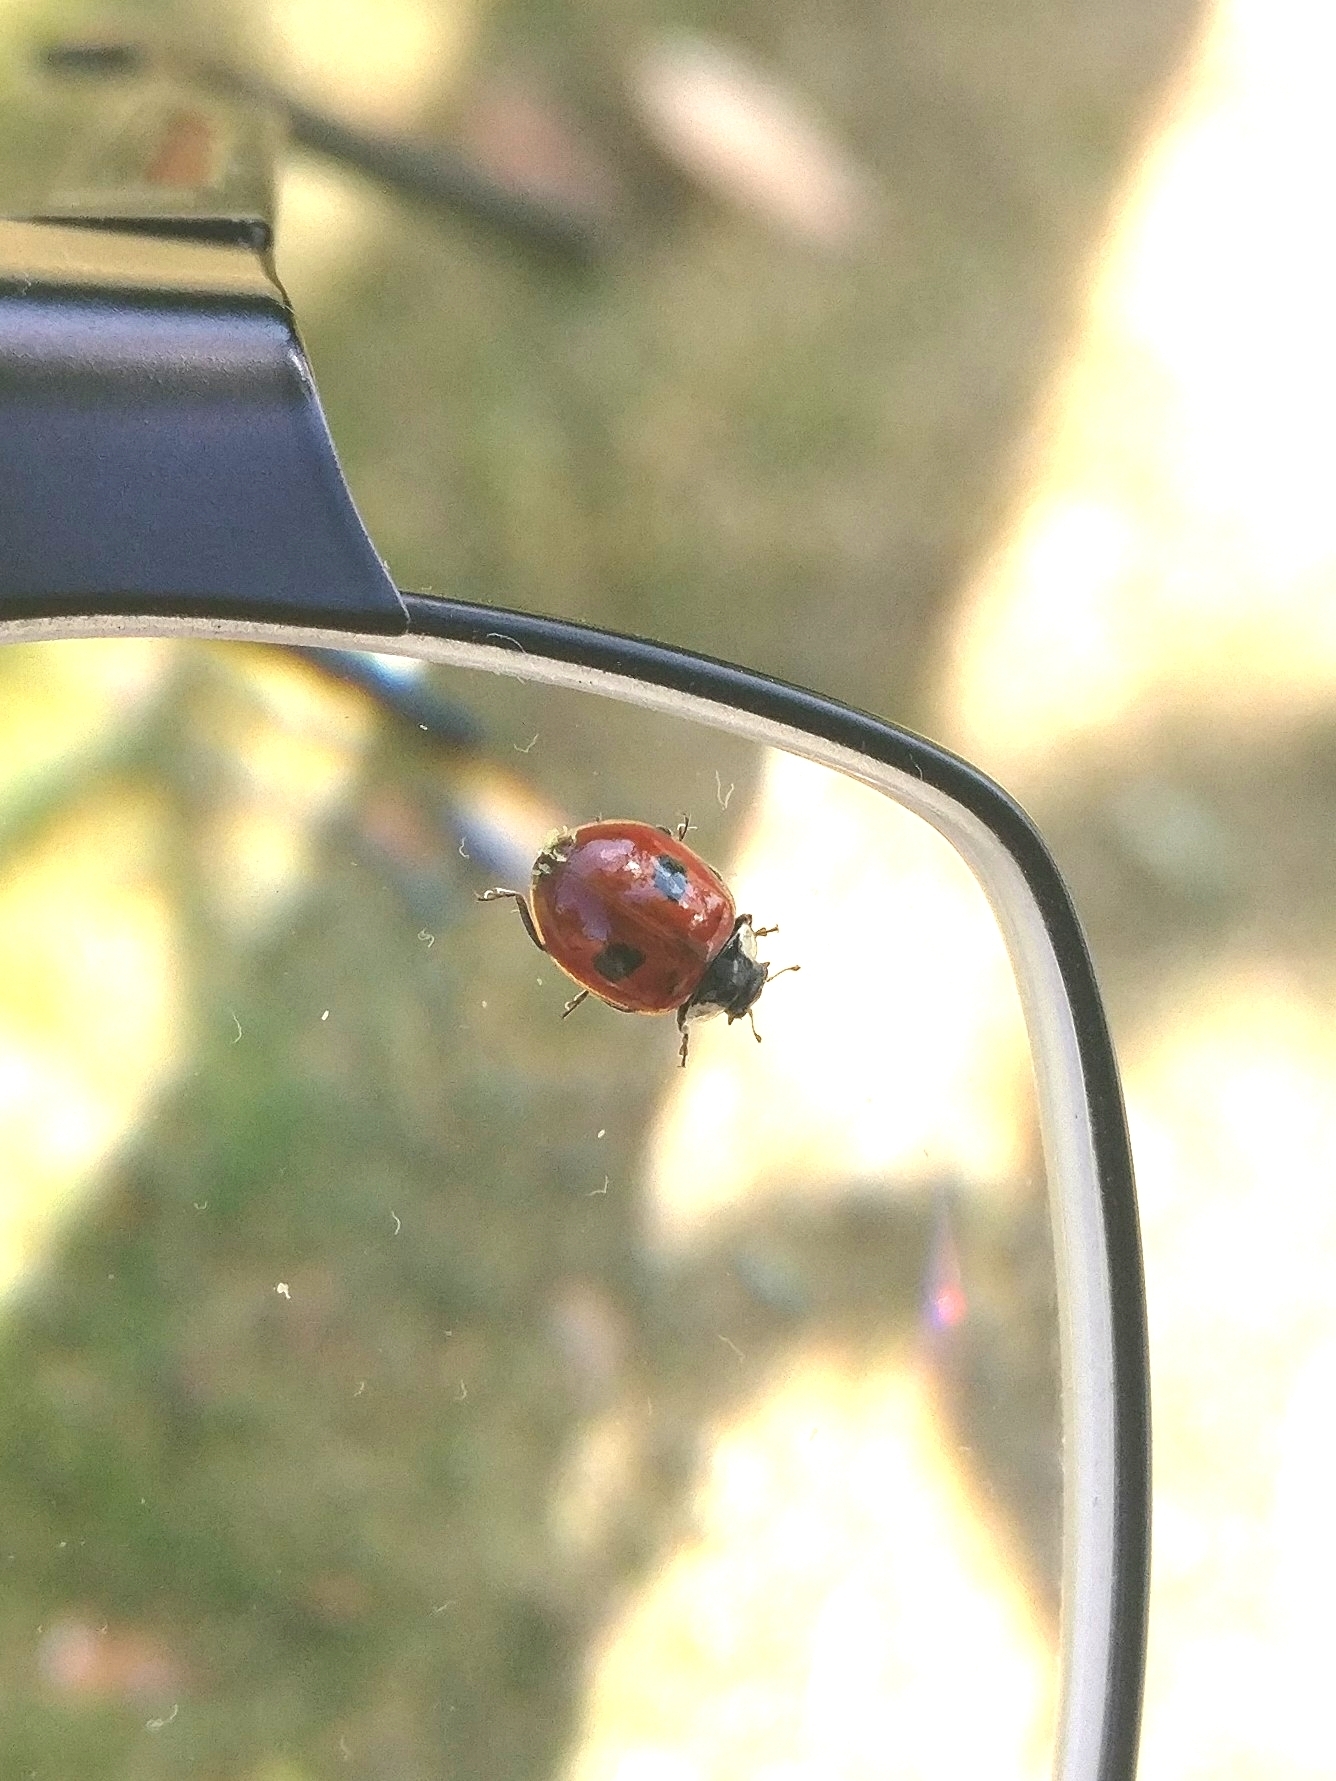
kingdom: Animalia
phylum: Arthropoda
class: Insecta
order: Coleoptera
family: Coccinellidae
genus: Adalia
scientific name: Adalia bipunctata
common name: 2-spot ladybird
